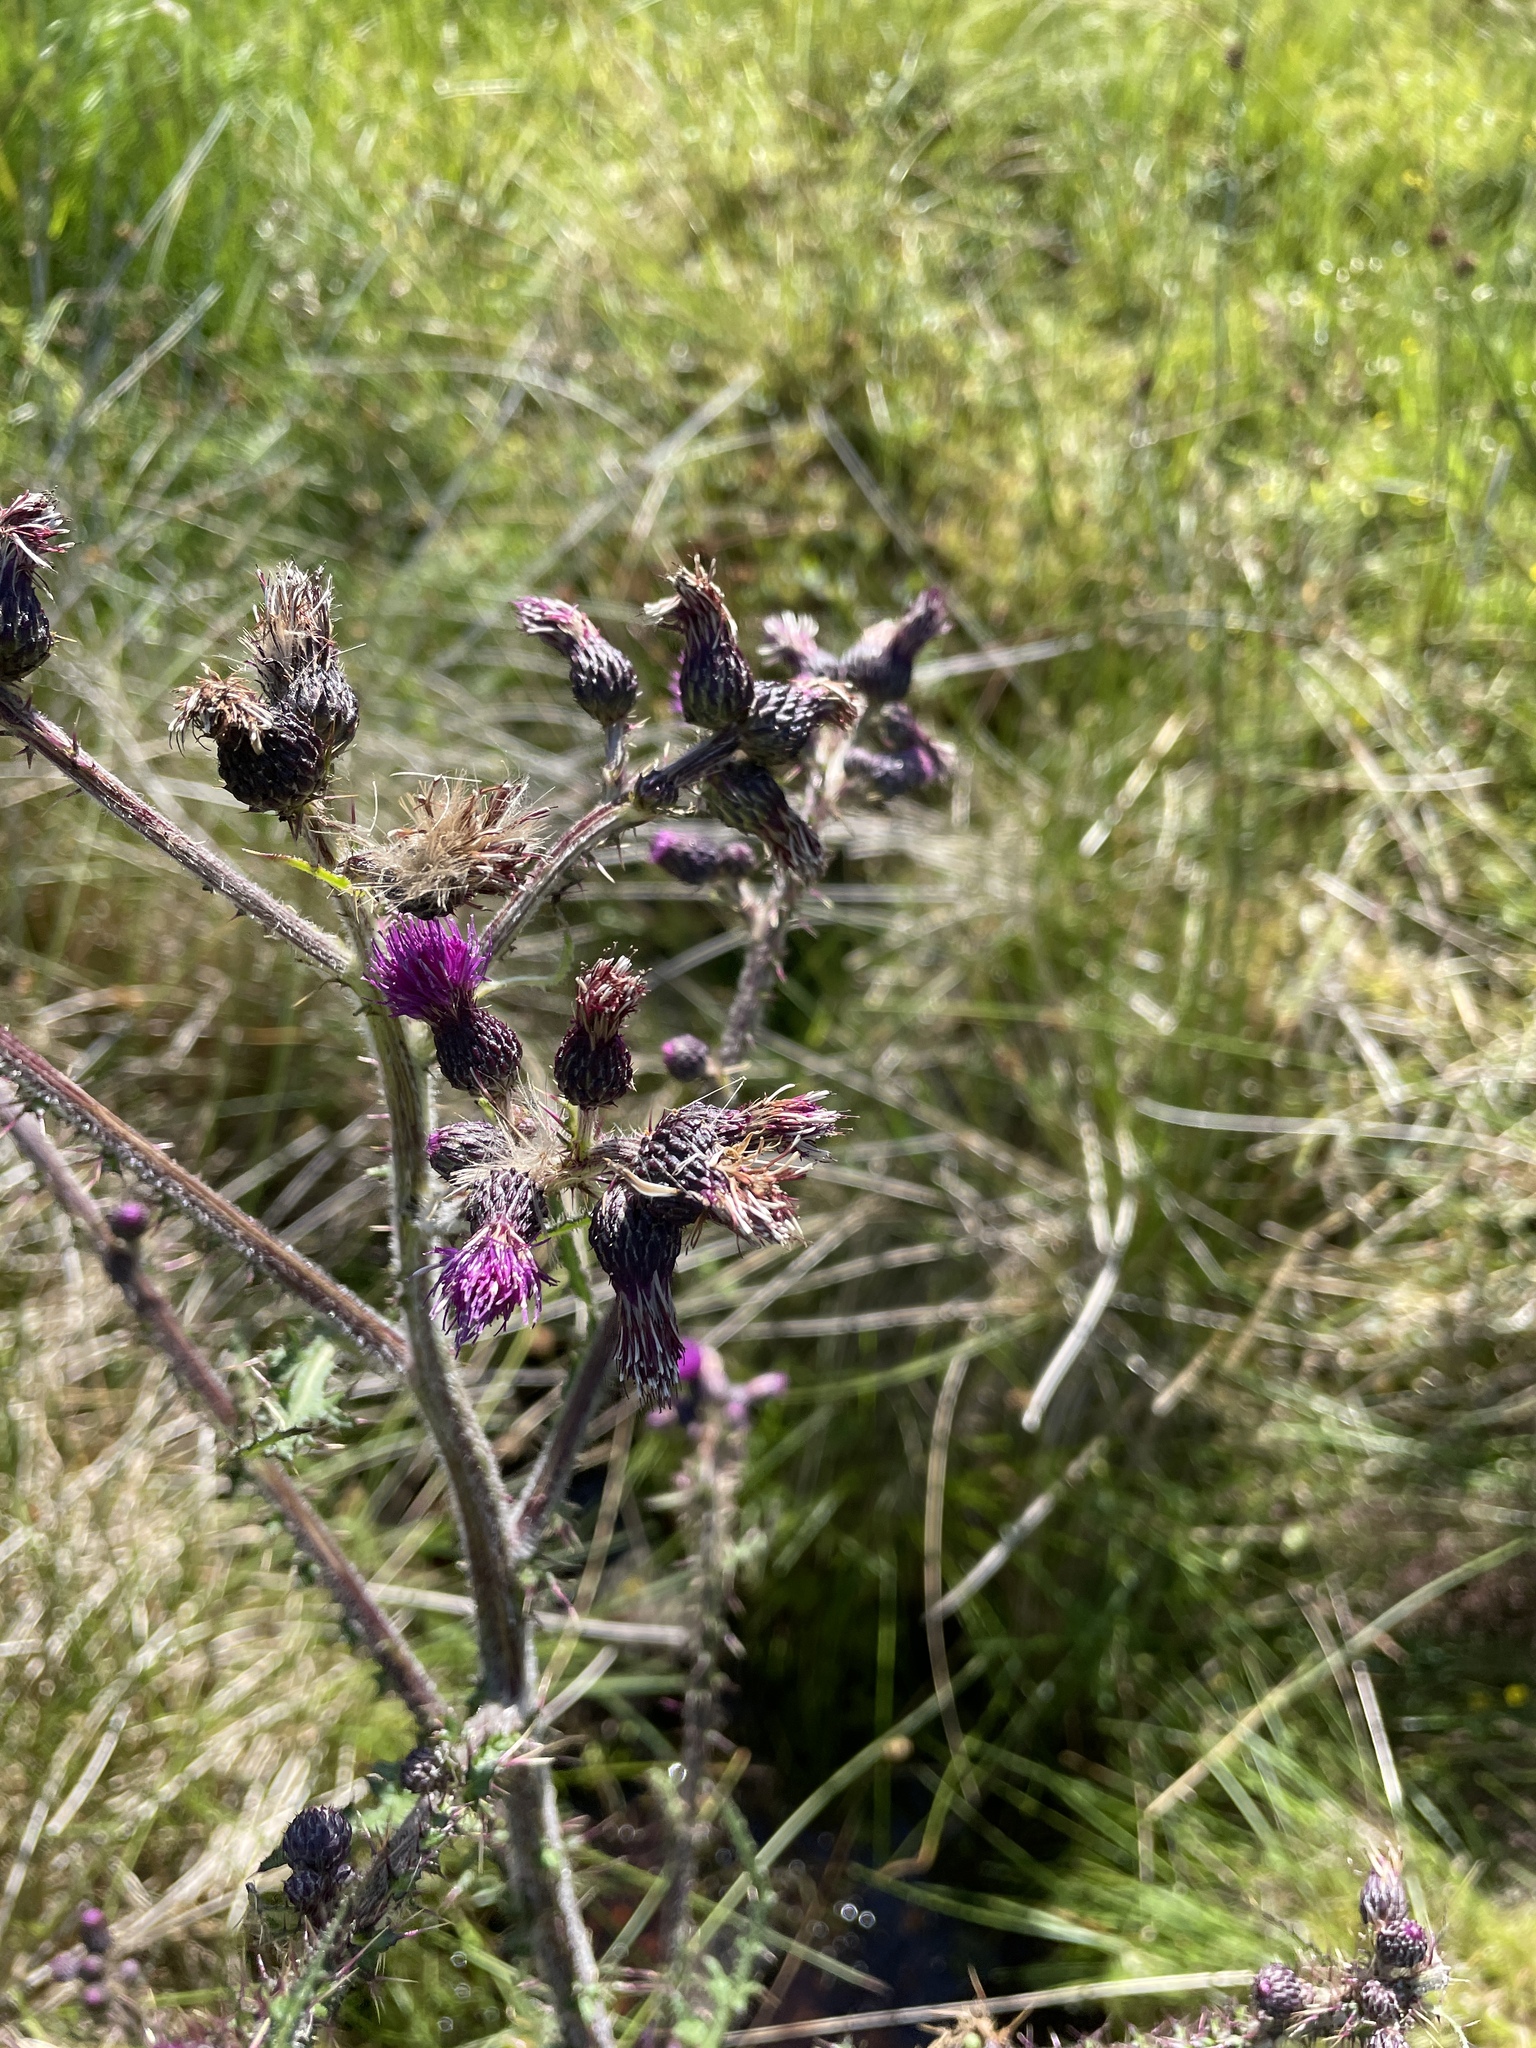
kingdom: Plantae
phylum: Tracheophyta
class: Magnoliopsida
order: Asterales
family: Asteraceae
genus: Cirsium
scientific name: Cirsium palustre
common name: Marsh thistle
